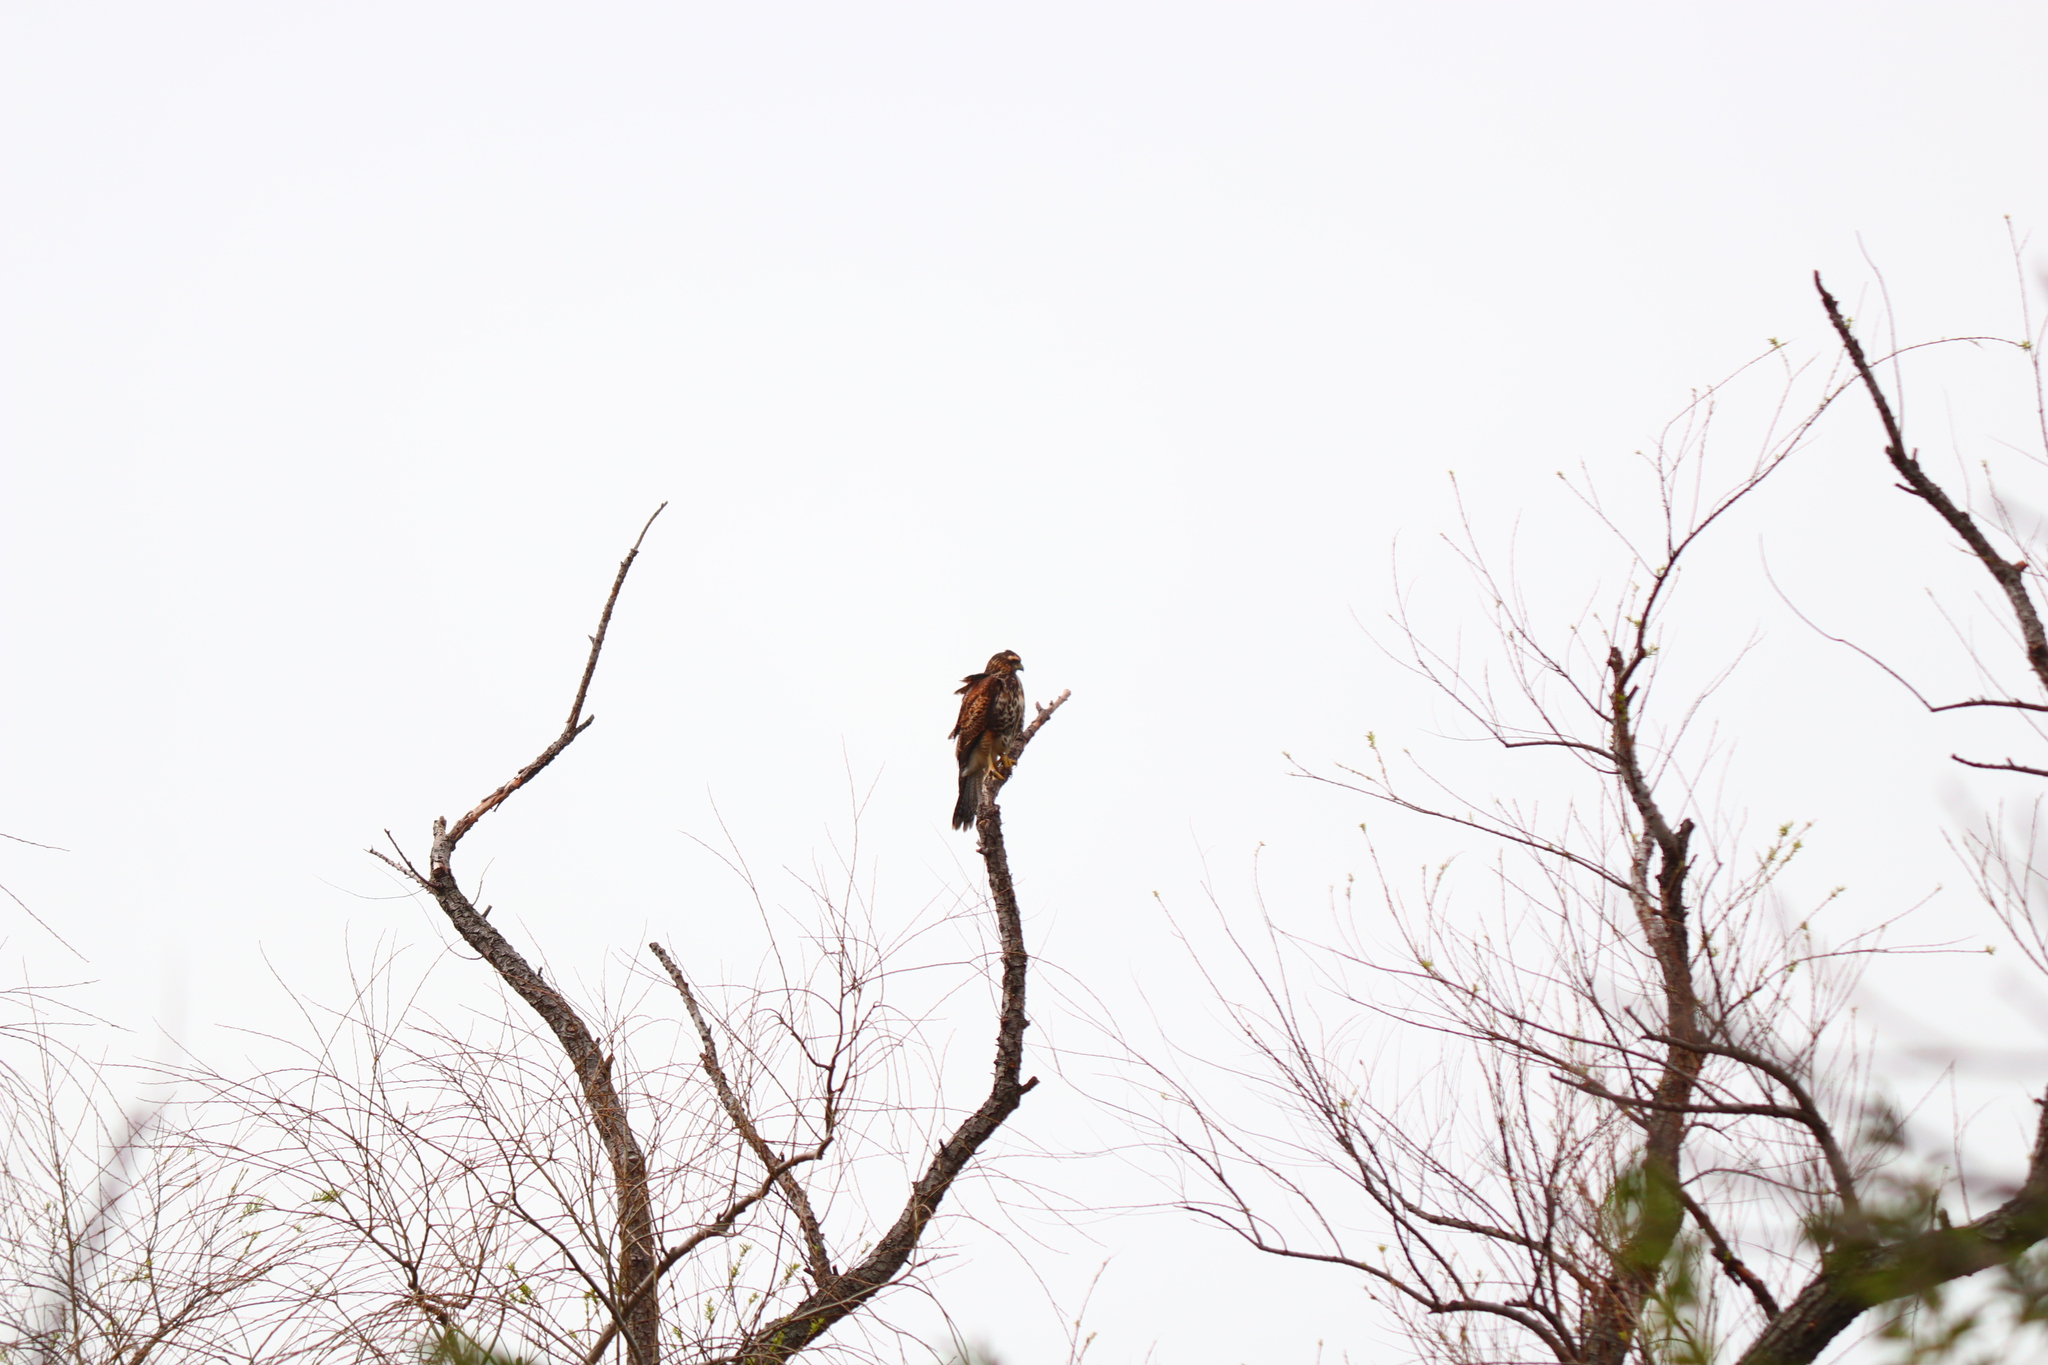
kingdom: Animalia
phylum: Chordata
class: Aves
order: Accipitriformes
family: Accipitridae
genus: Parabuteo
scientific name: Parabuteo unicinctus
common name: Harris's hawk
